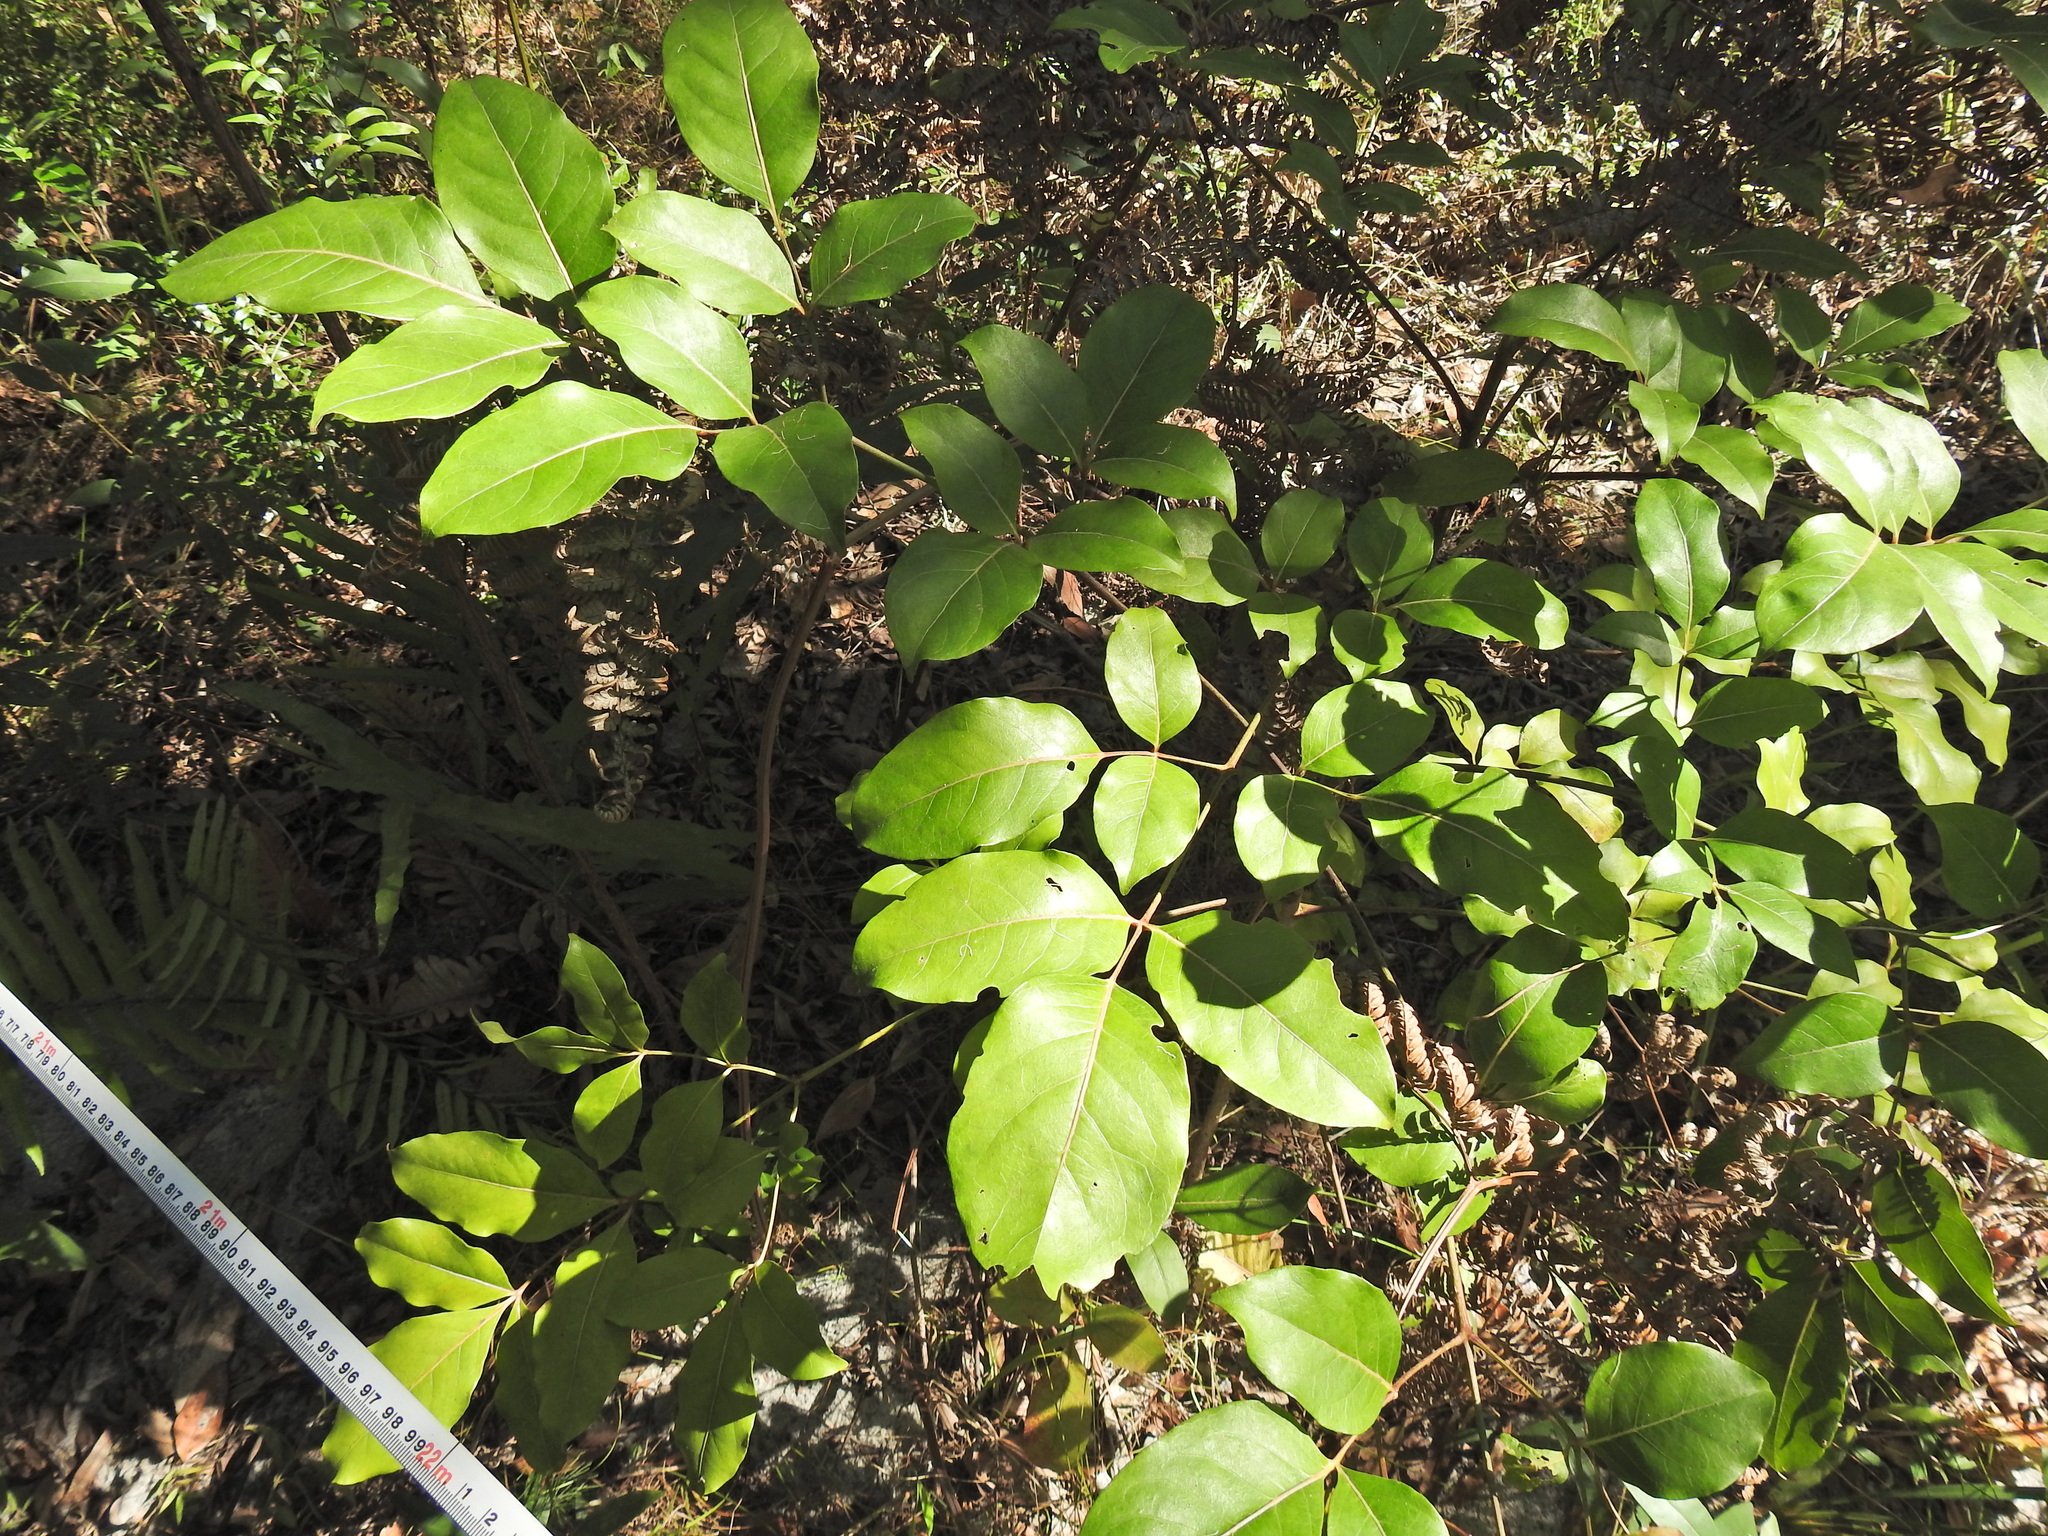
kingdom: Plantae
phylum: Tracheophyta
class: Magnoliopsida
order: Apiales
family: Araliaceae
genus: Polyscias
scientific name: Polyscias elegans
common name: Mowbulan whitewood
